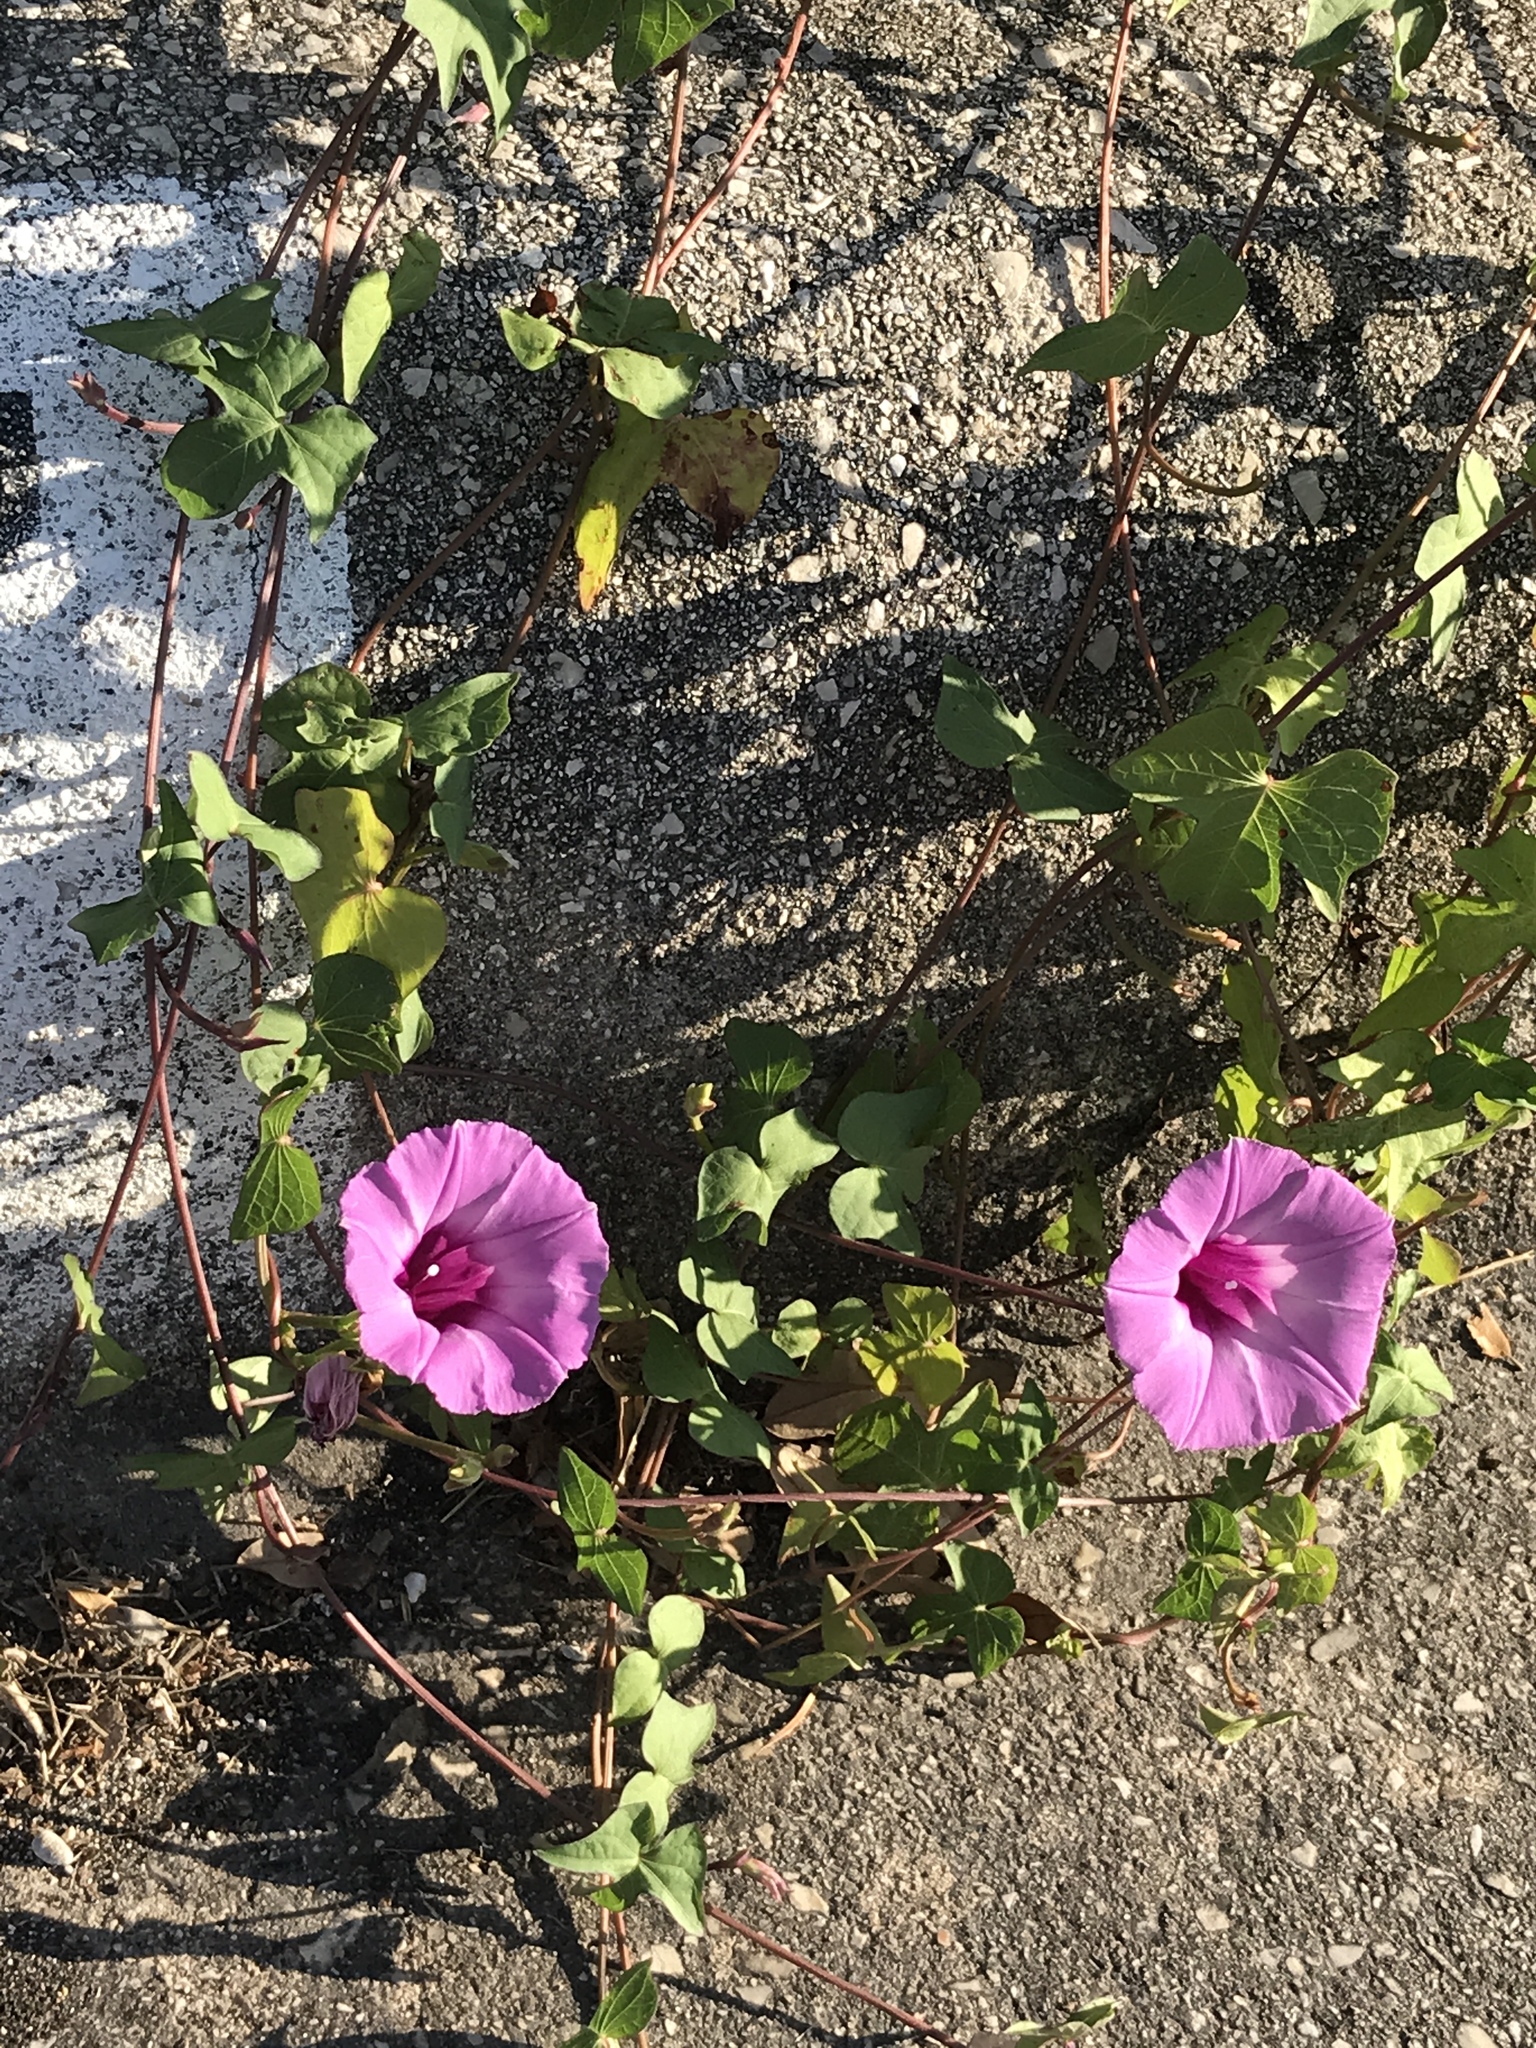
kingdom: Plantae
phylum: Tracheophyta
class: Magnoliopsida
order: Solanales
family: Convolvulaceae
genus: Ipomoea
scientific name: Ipomoea cordatotriloba
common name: Cotton morning glory
